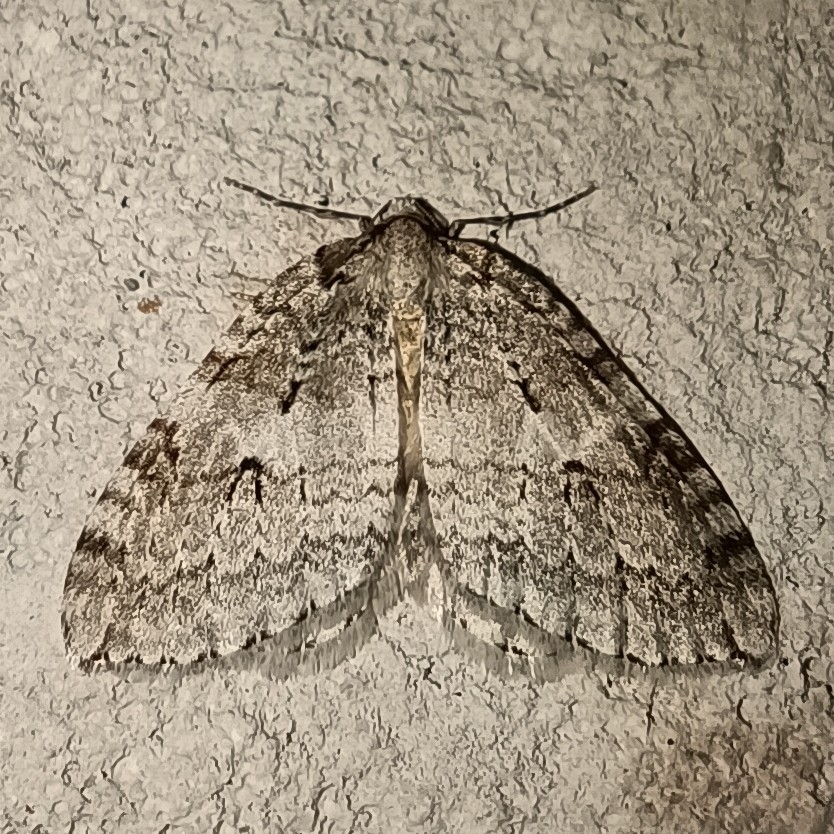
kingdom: Animalia
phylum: Arthropoda
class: Insecta
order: Lepidoptera
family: Geometridae
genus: Epirrita
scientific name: Epirrita autumnata
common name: Autumnal moth
